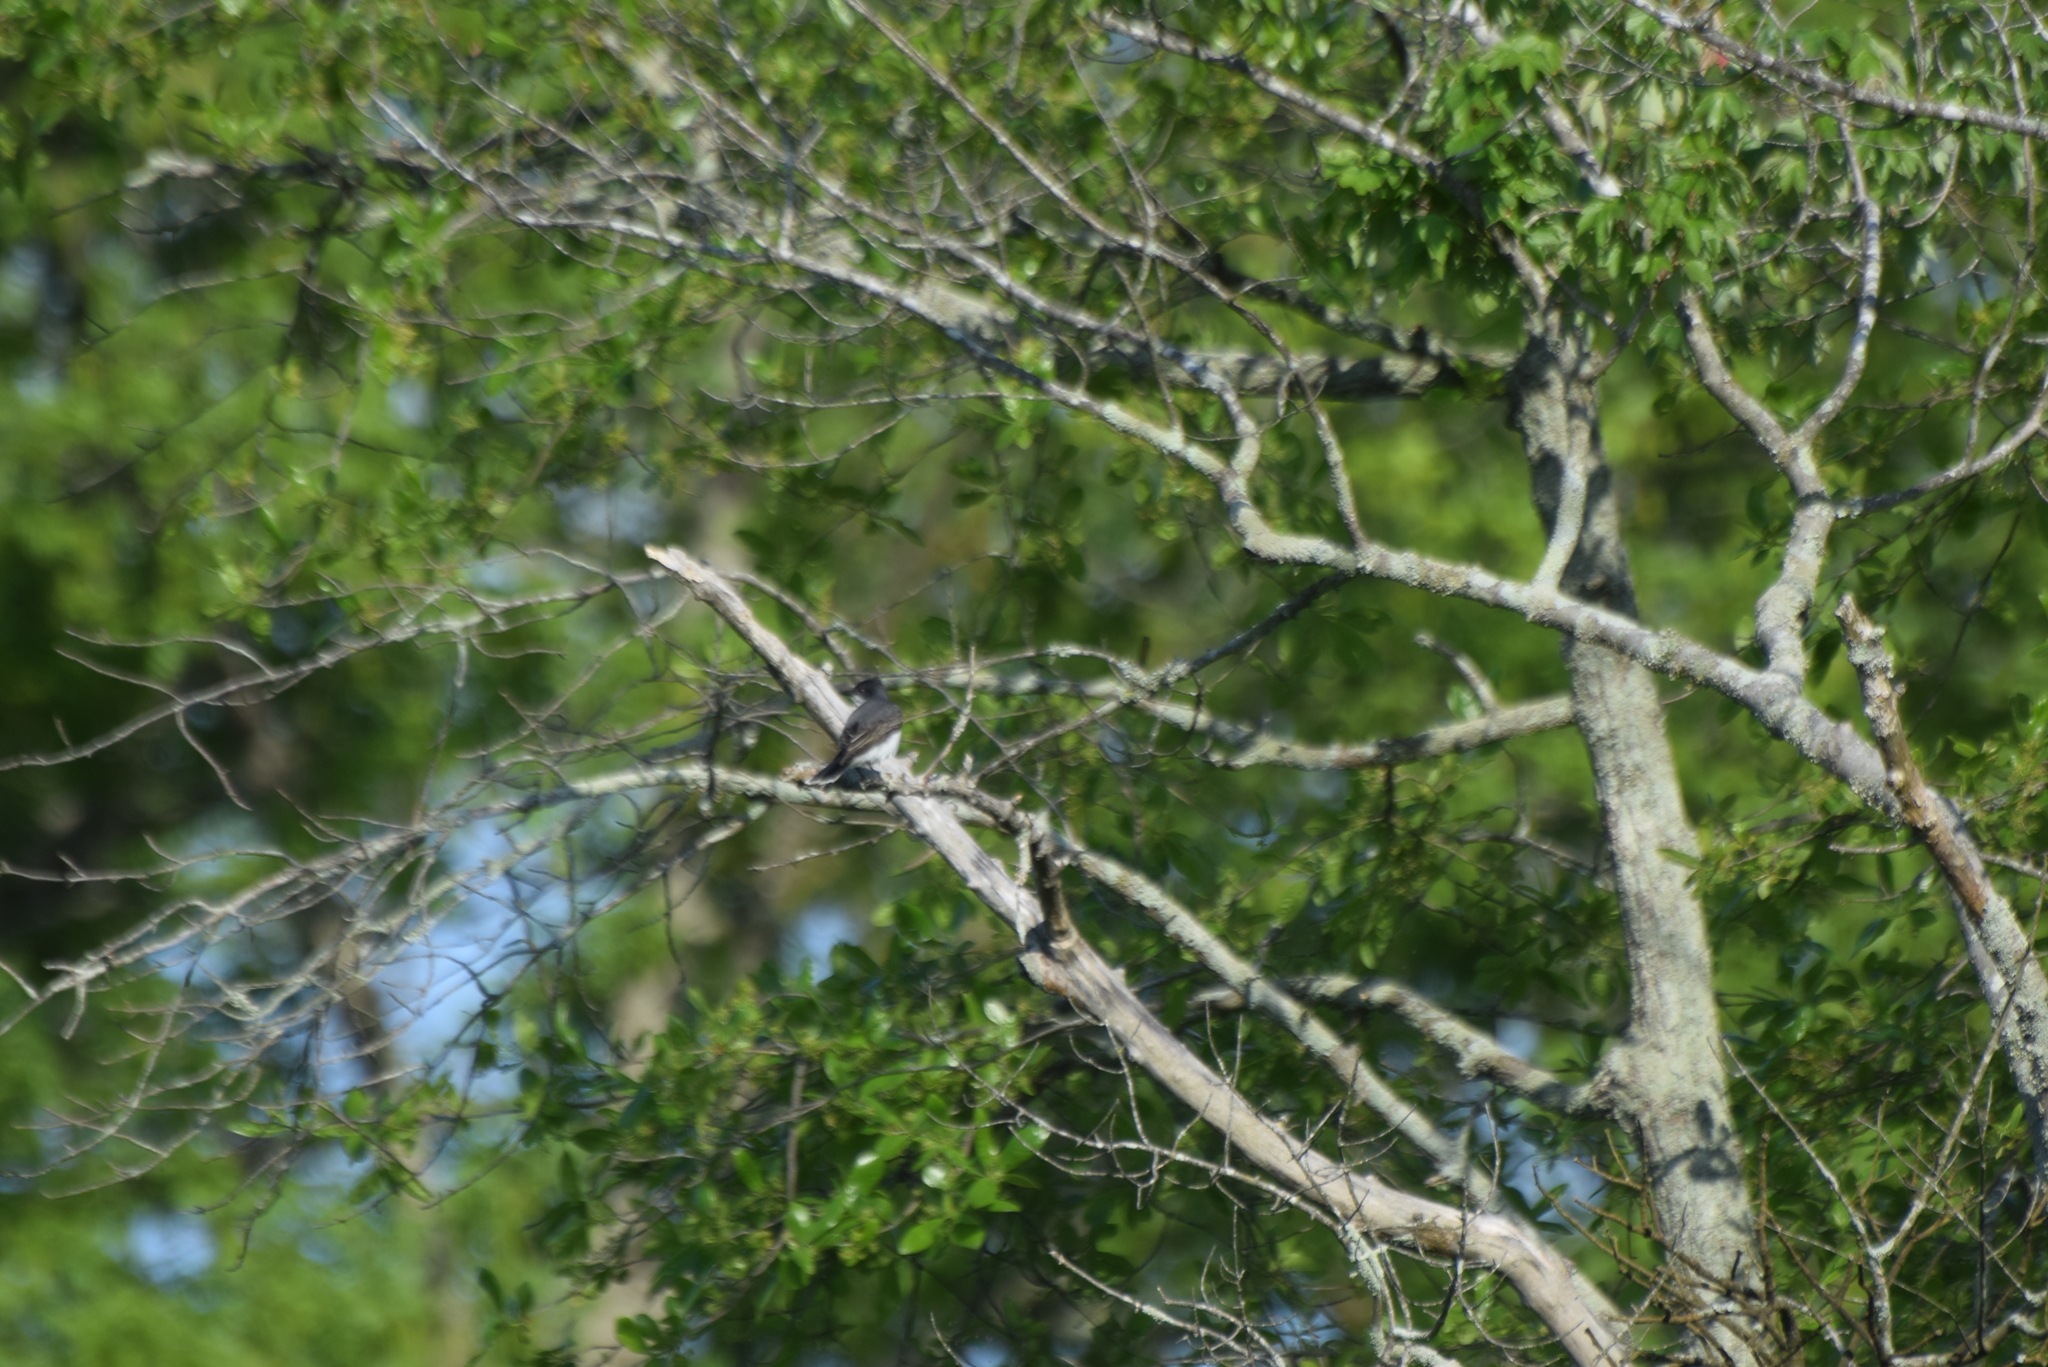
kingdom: Animalia
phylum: Chordata
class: Aves
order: Passeriformes
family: Tyrannidae
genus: Tyrannus
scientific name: Tyrannus tyrannus
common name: Eastern kingbird
